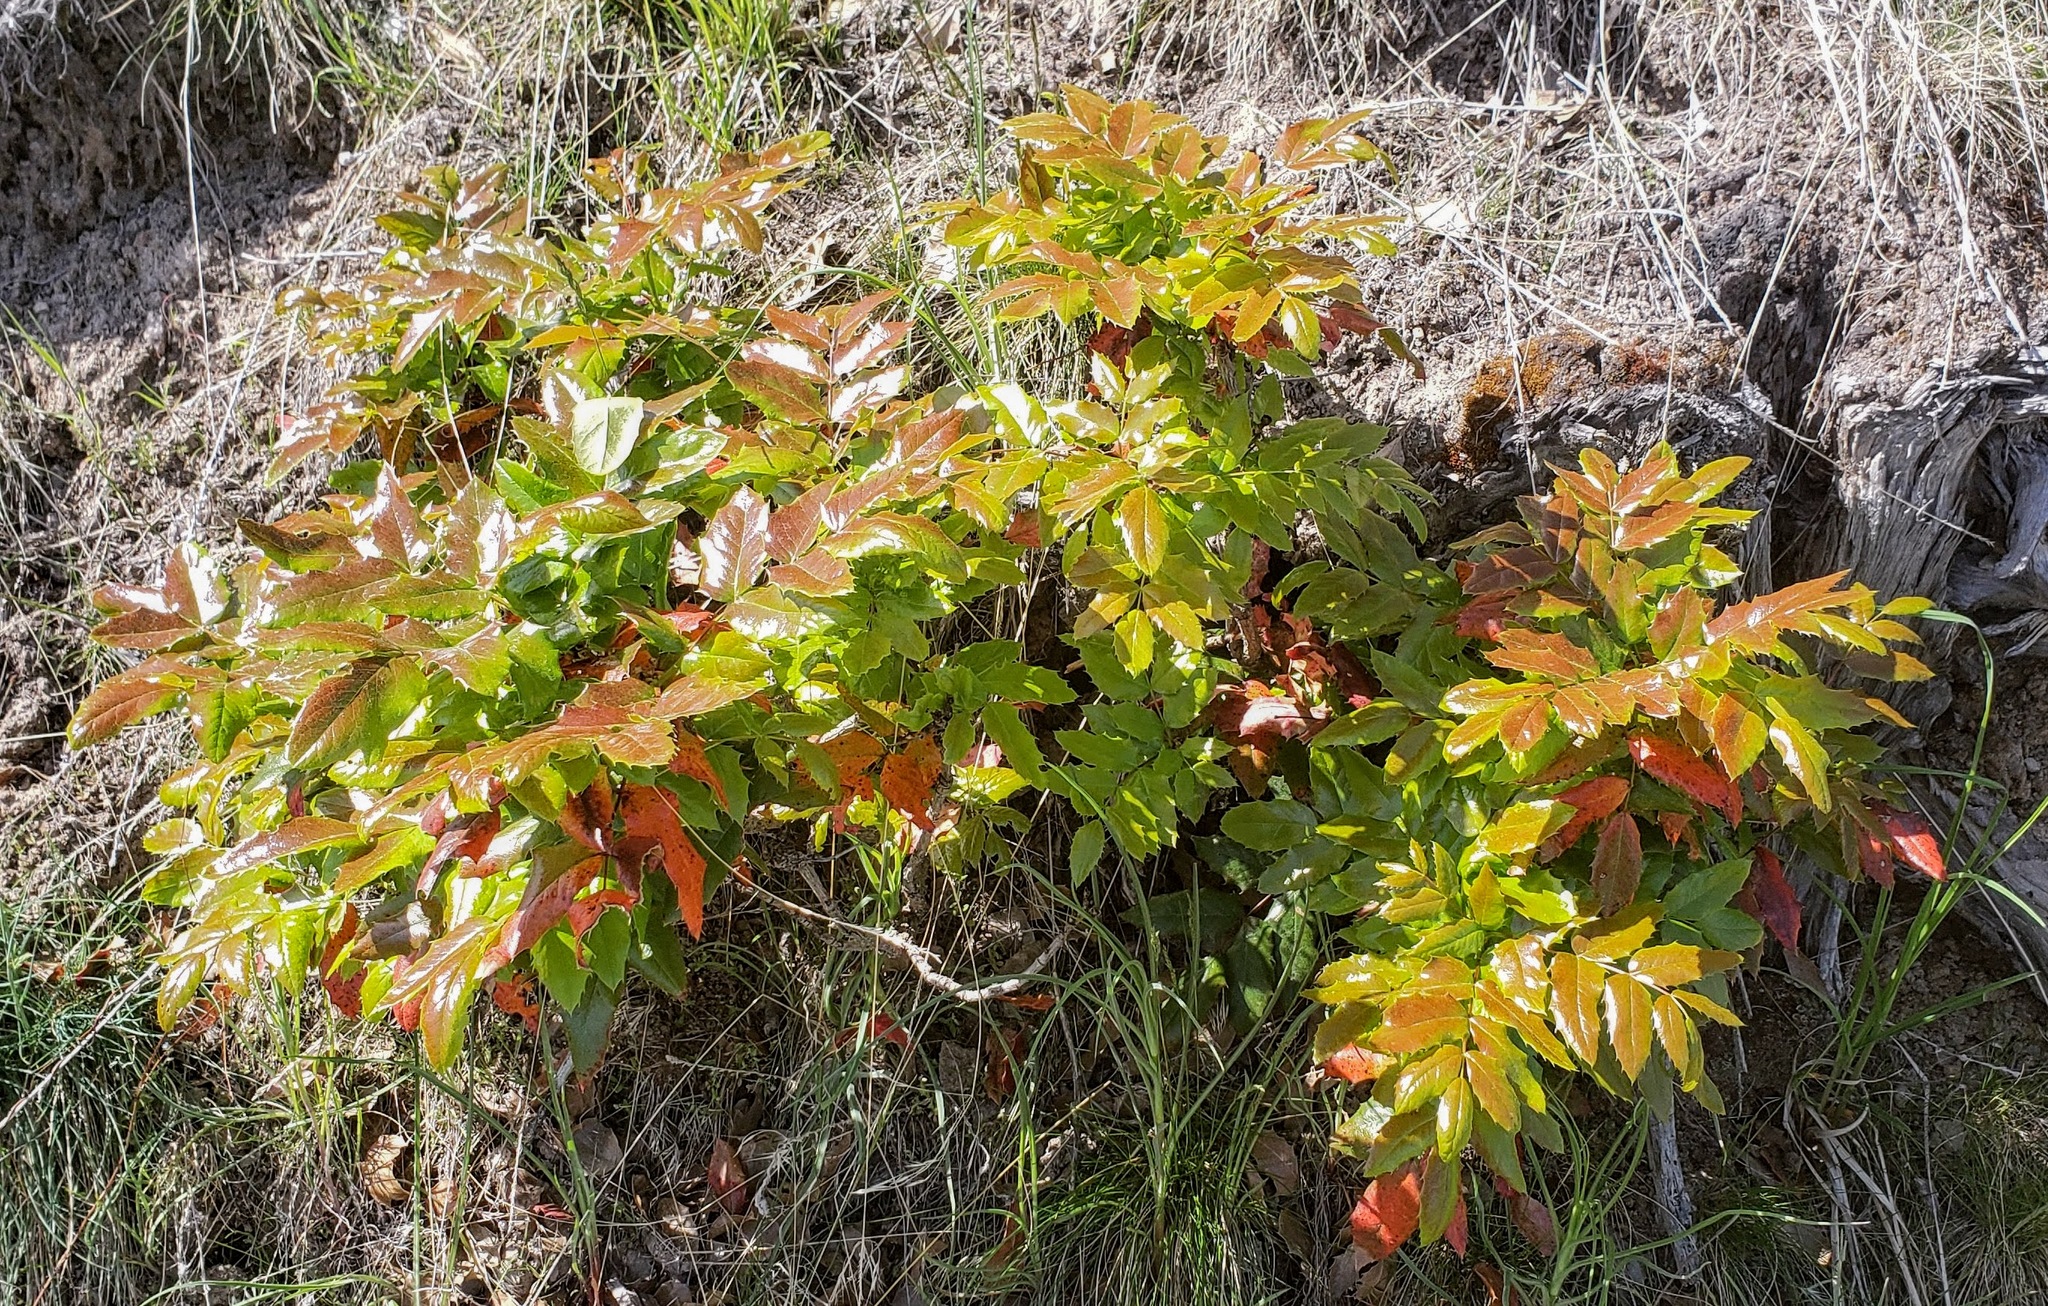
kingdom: Plantae
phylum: Tracheophyta
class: Magnoliopsida
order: Ranunculales
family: Berberidaceae
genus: Mahonia
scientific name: Mahonia aquifolium
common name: Oregon-grape
